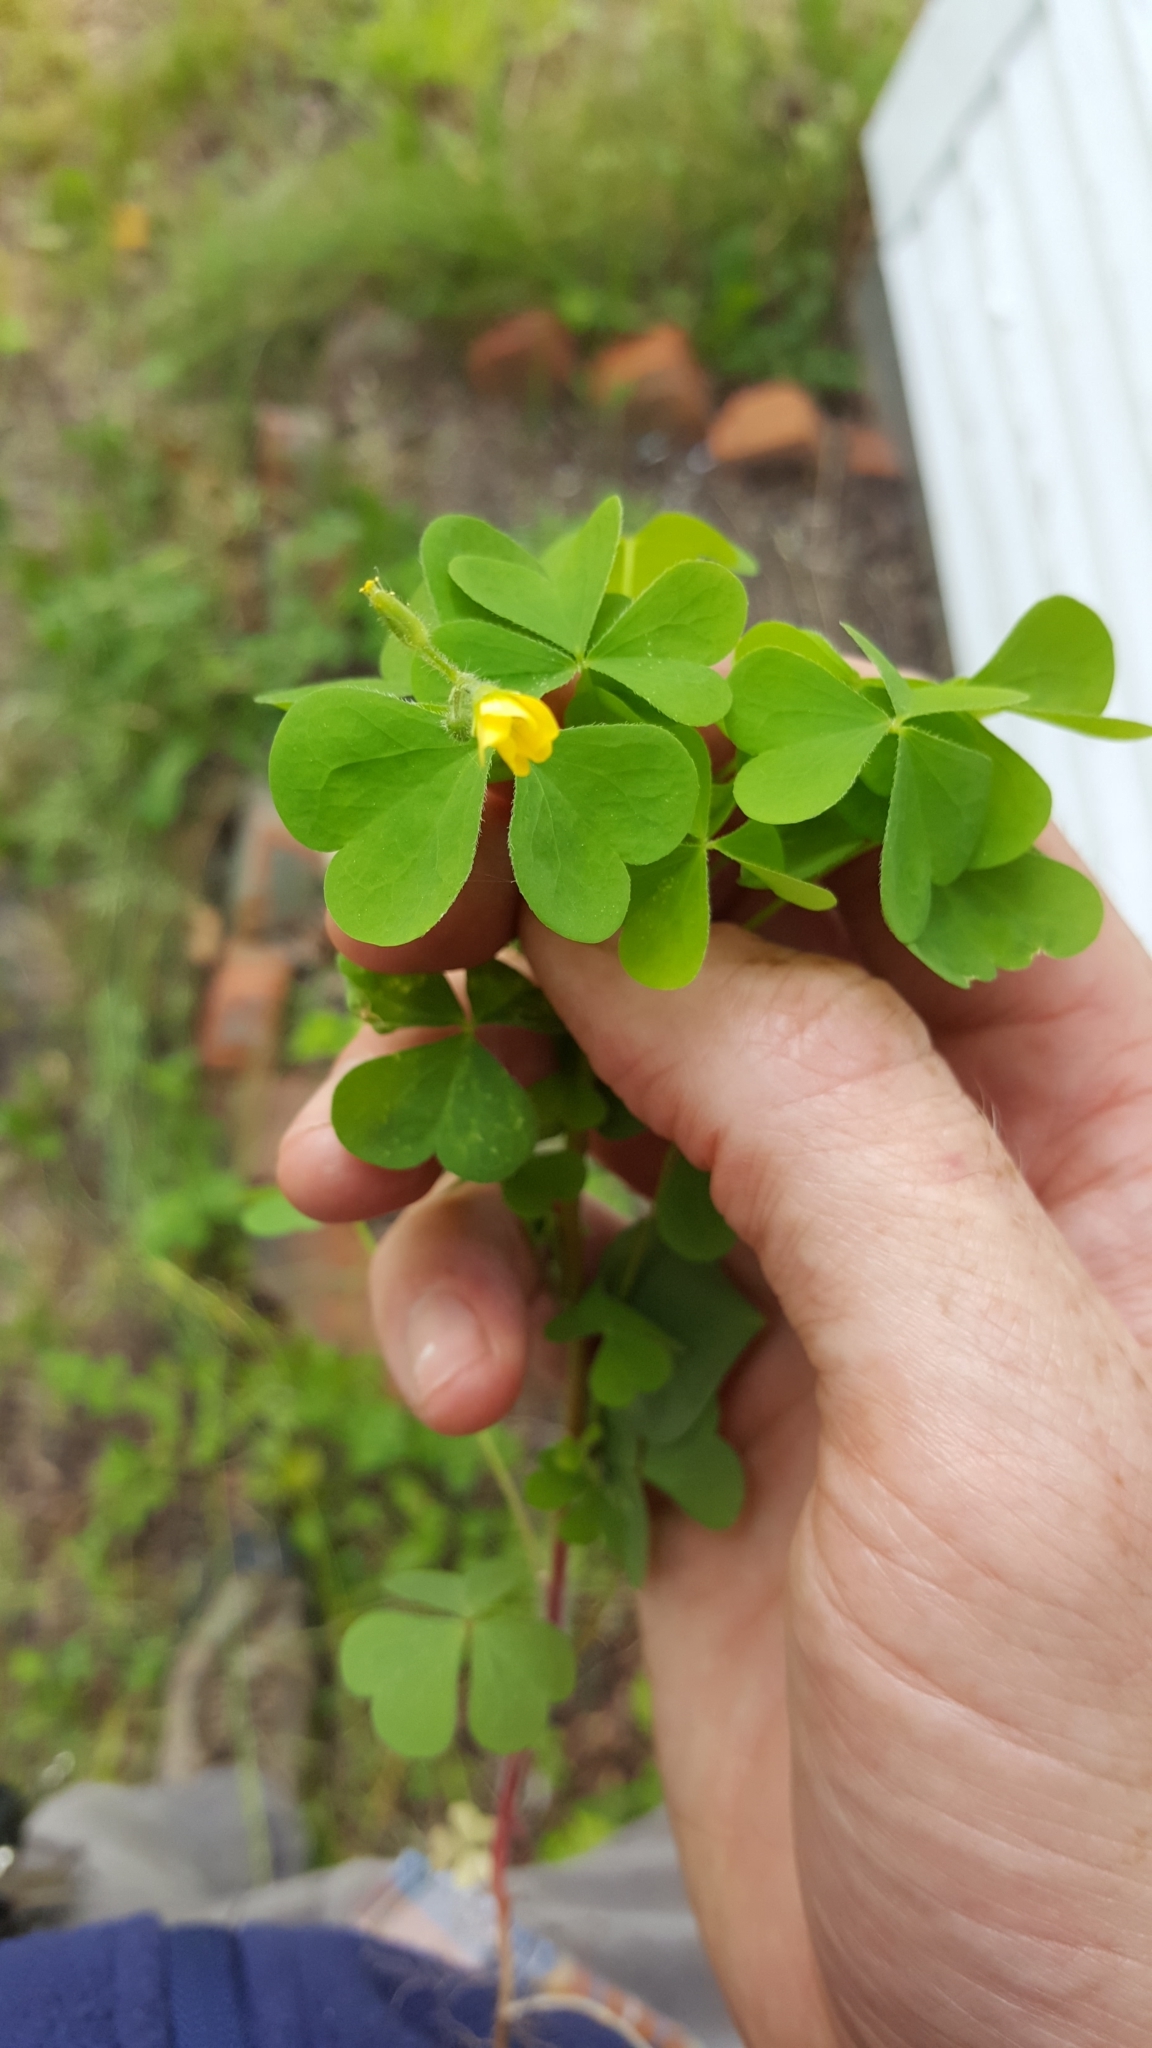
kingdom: Plantae
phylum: Tracheophyta
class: Magnoliopsida
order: Oxalidales
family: Oxalidaceae
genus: Oxalis
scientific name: Oxalis stricta
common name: Upright yellow-sorrel
